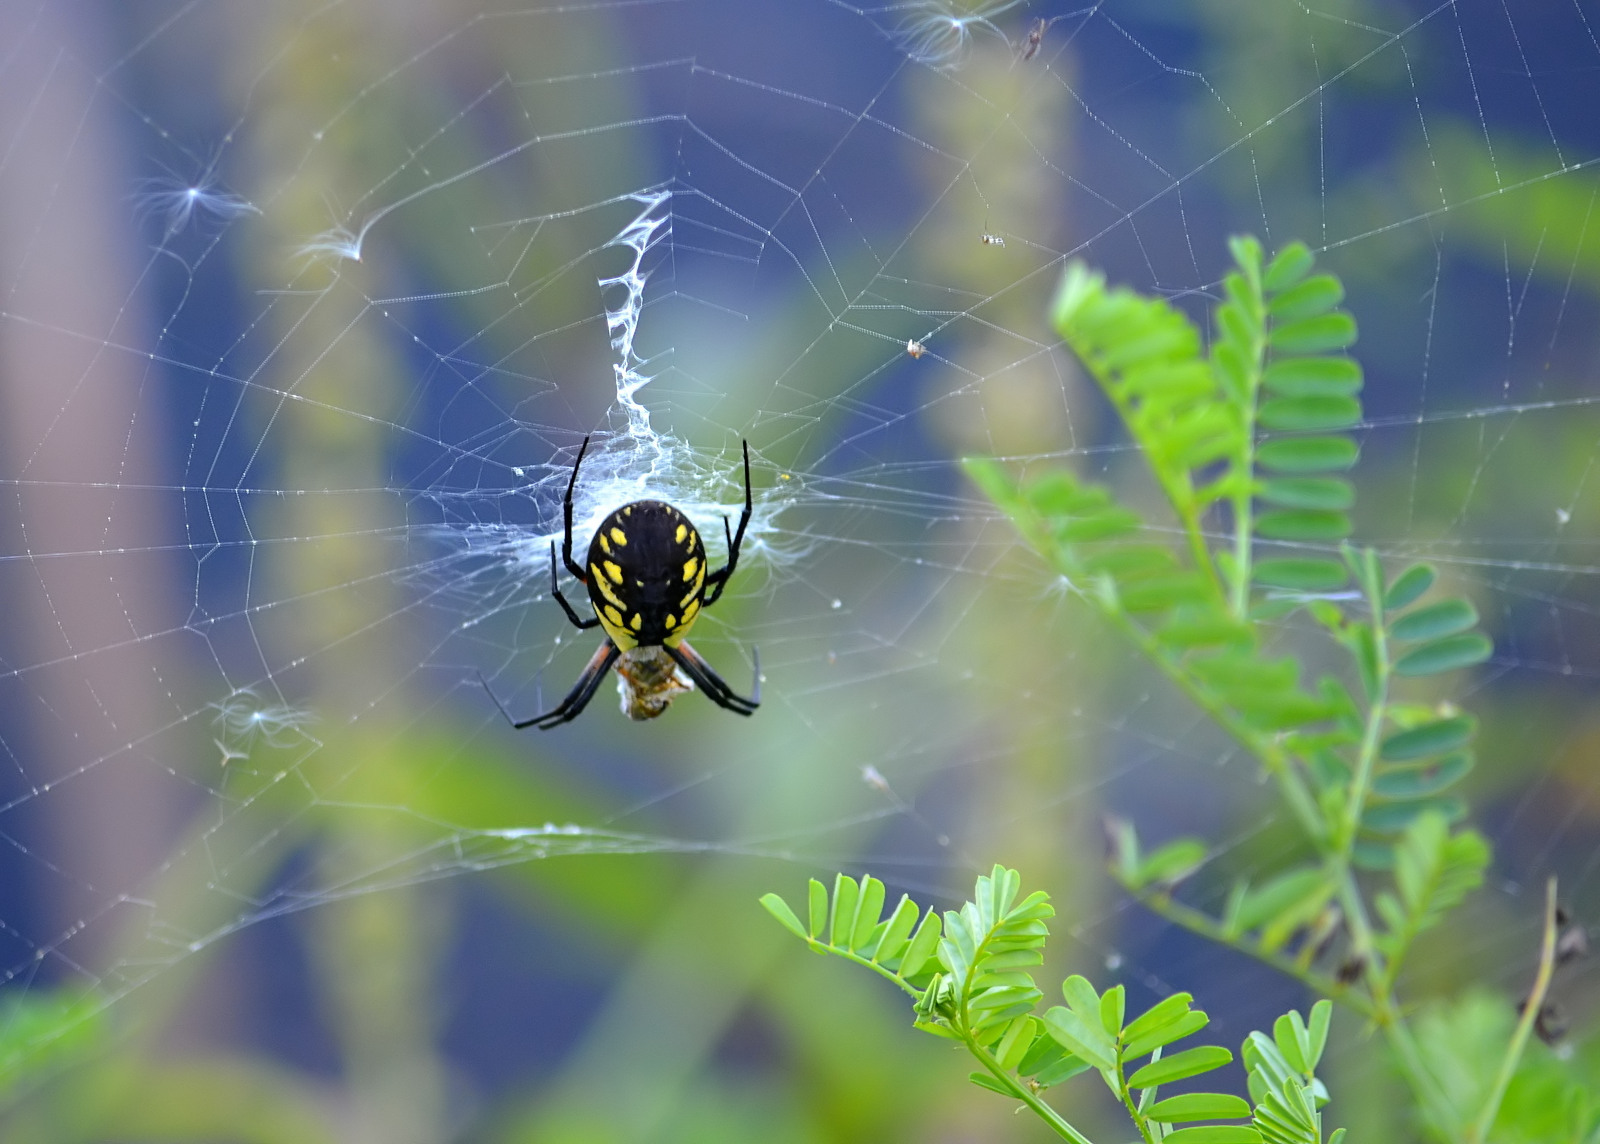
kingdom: Animalia
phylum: Arthropoda
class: Arachnida
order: Araneae
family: Araneidae
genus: Argiope
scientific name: Argiope aurantia
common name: Orb weavers
